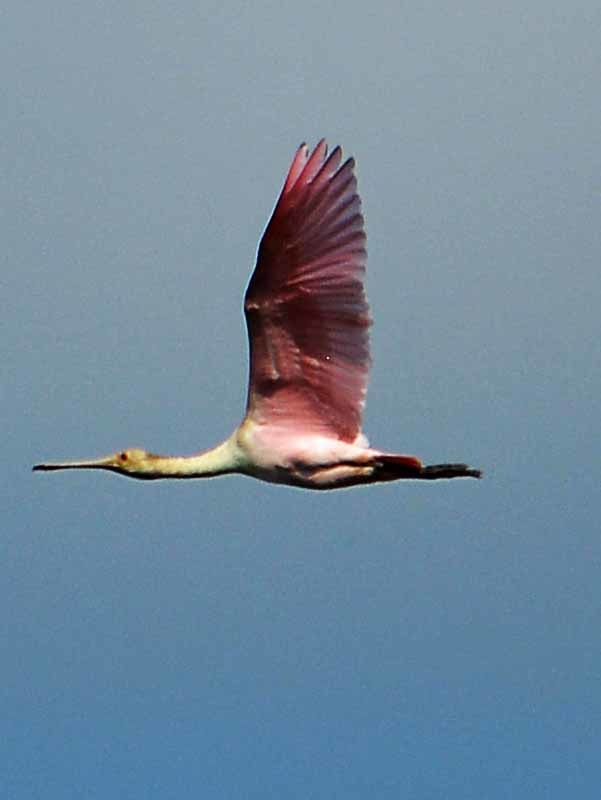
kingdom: Animalia
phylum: Chordata
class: Aves
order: Pelecaniformes
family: Threskiornithidae
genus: Platalea
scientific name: Platalea ajaja
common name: Roseate spoonbill
